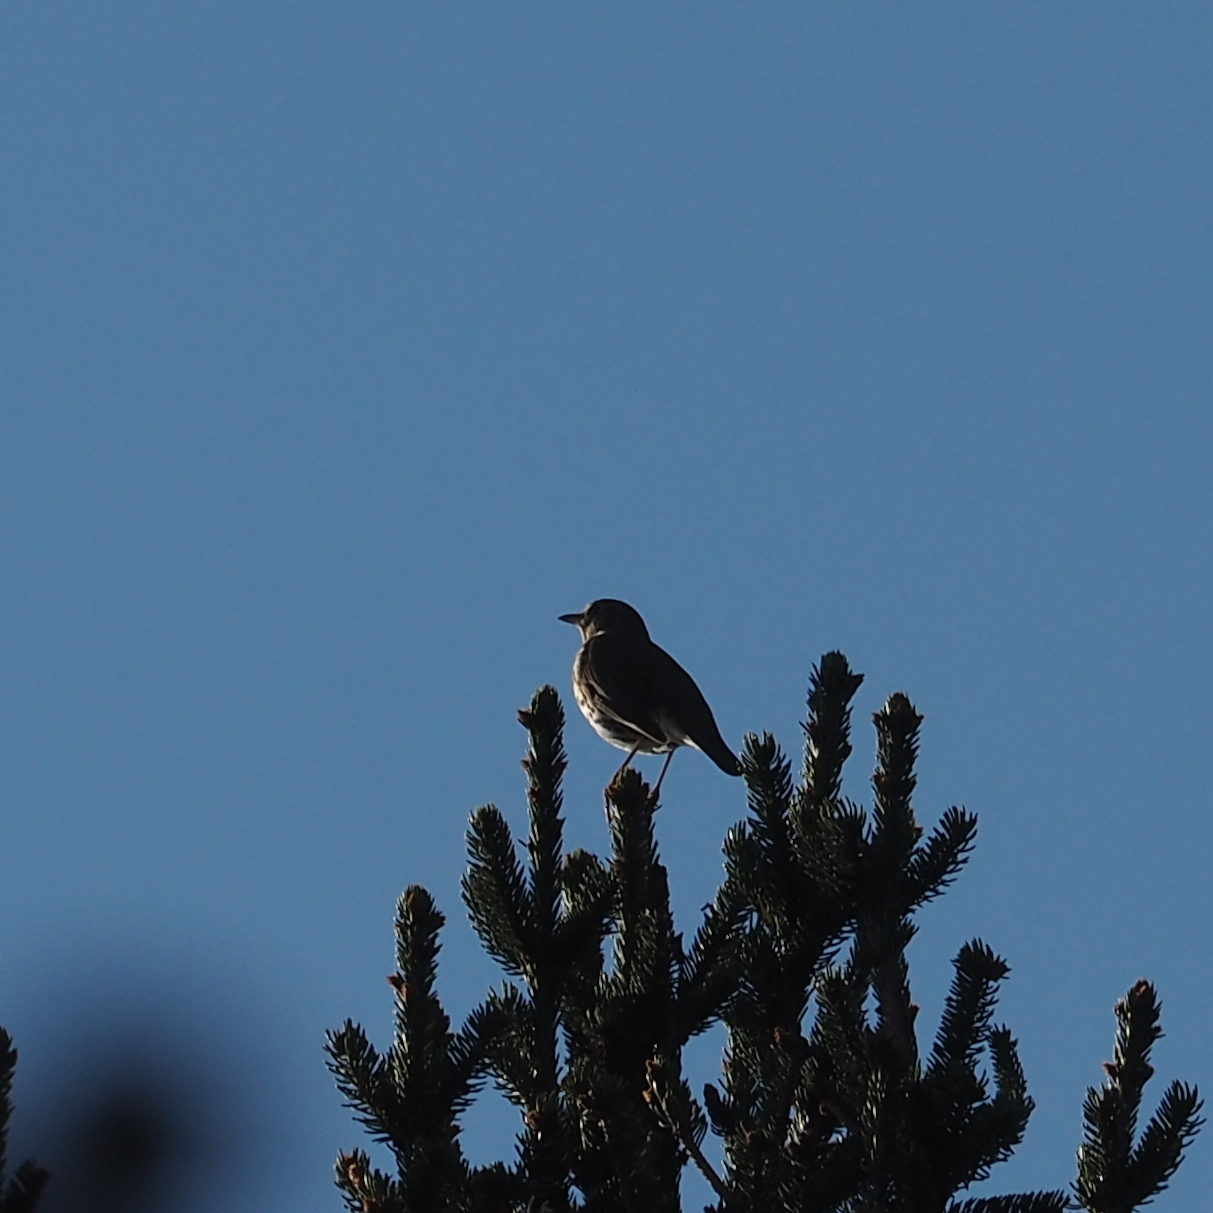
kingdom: Animalia
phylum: Chordata
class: Aves
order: Passeriformes
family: Turdidae
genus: Turdus
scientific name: Turdus philomelos
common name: Song thrush
